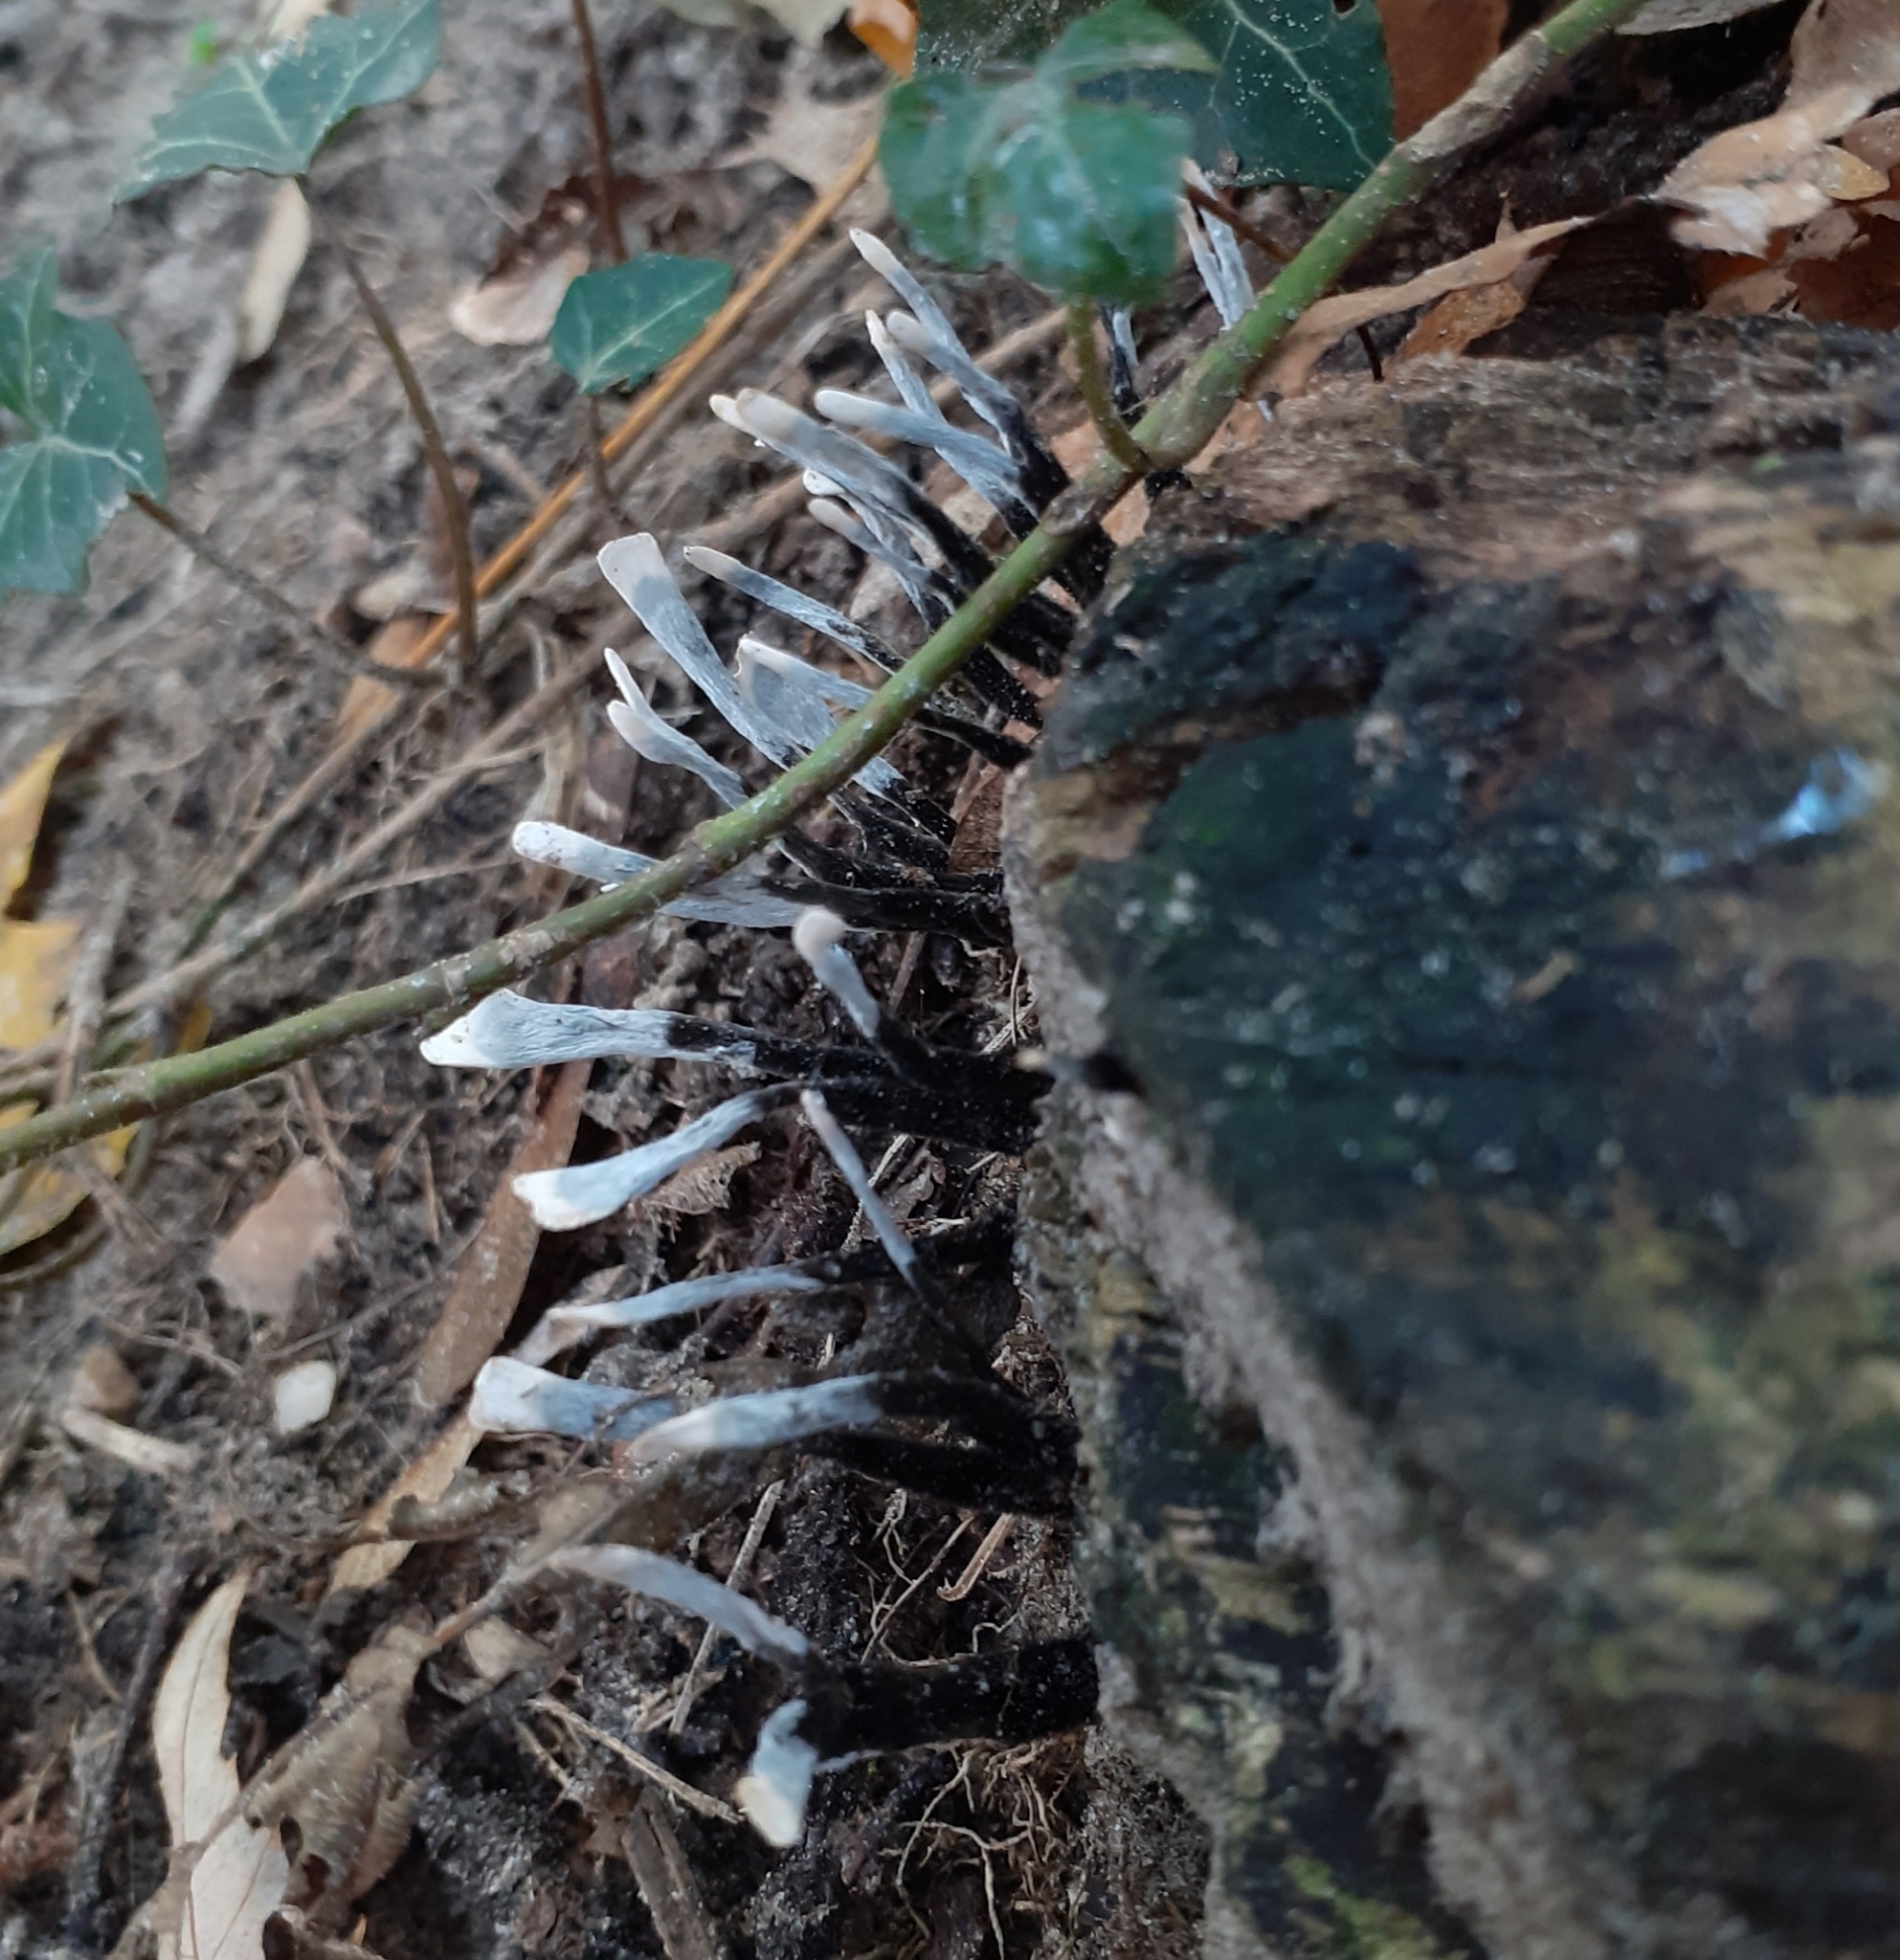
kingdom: Fungi
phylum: Ascomycota
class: Sordariomycetes
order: Xylariales
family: Xylariaceae
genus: Xylaria
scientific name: Xylaria hypoxylon
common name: Candle-snuff fungus
